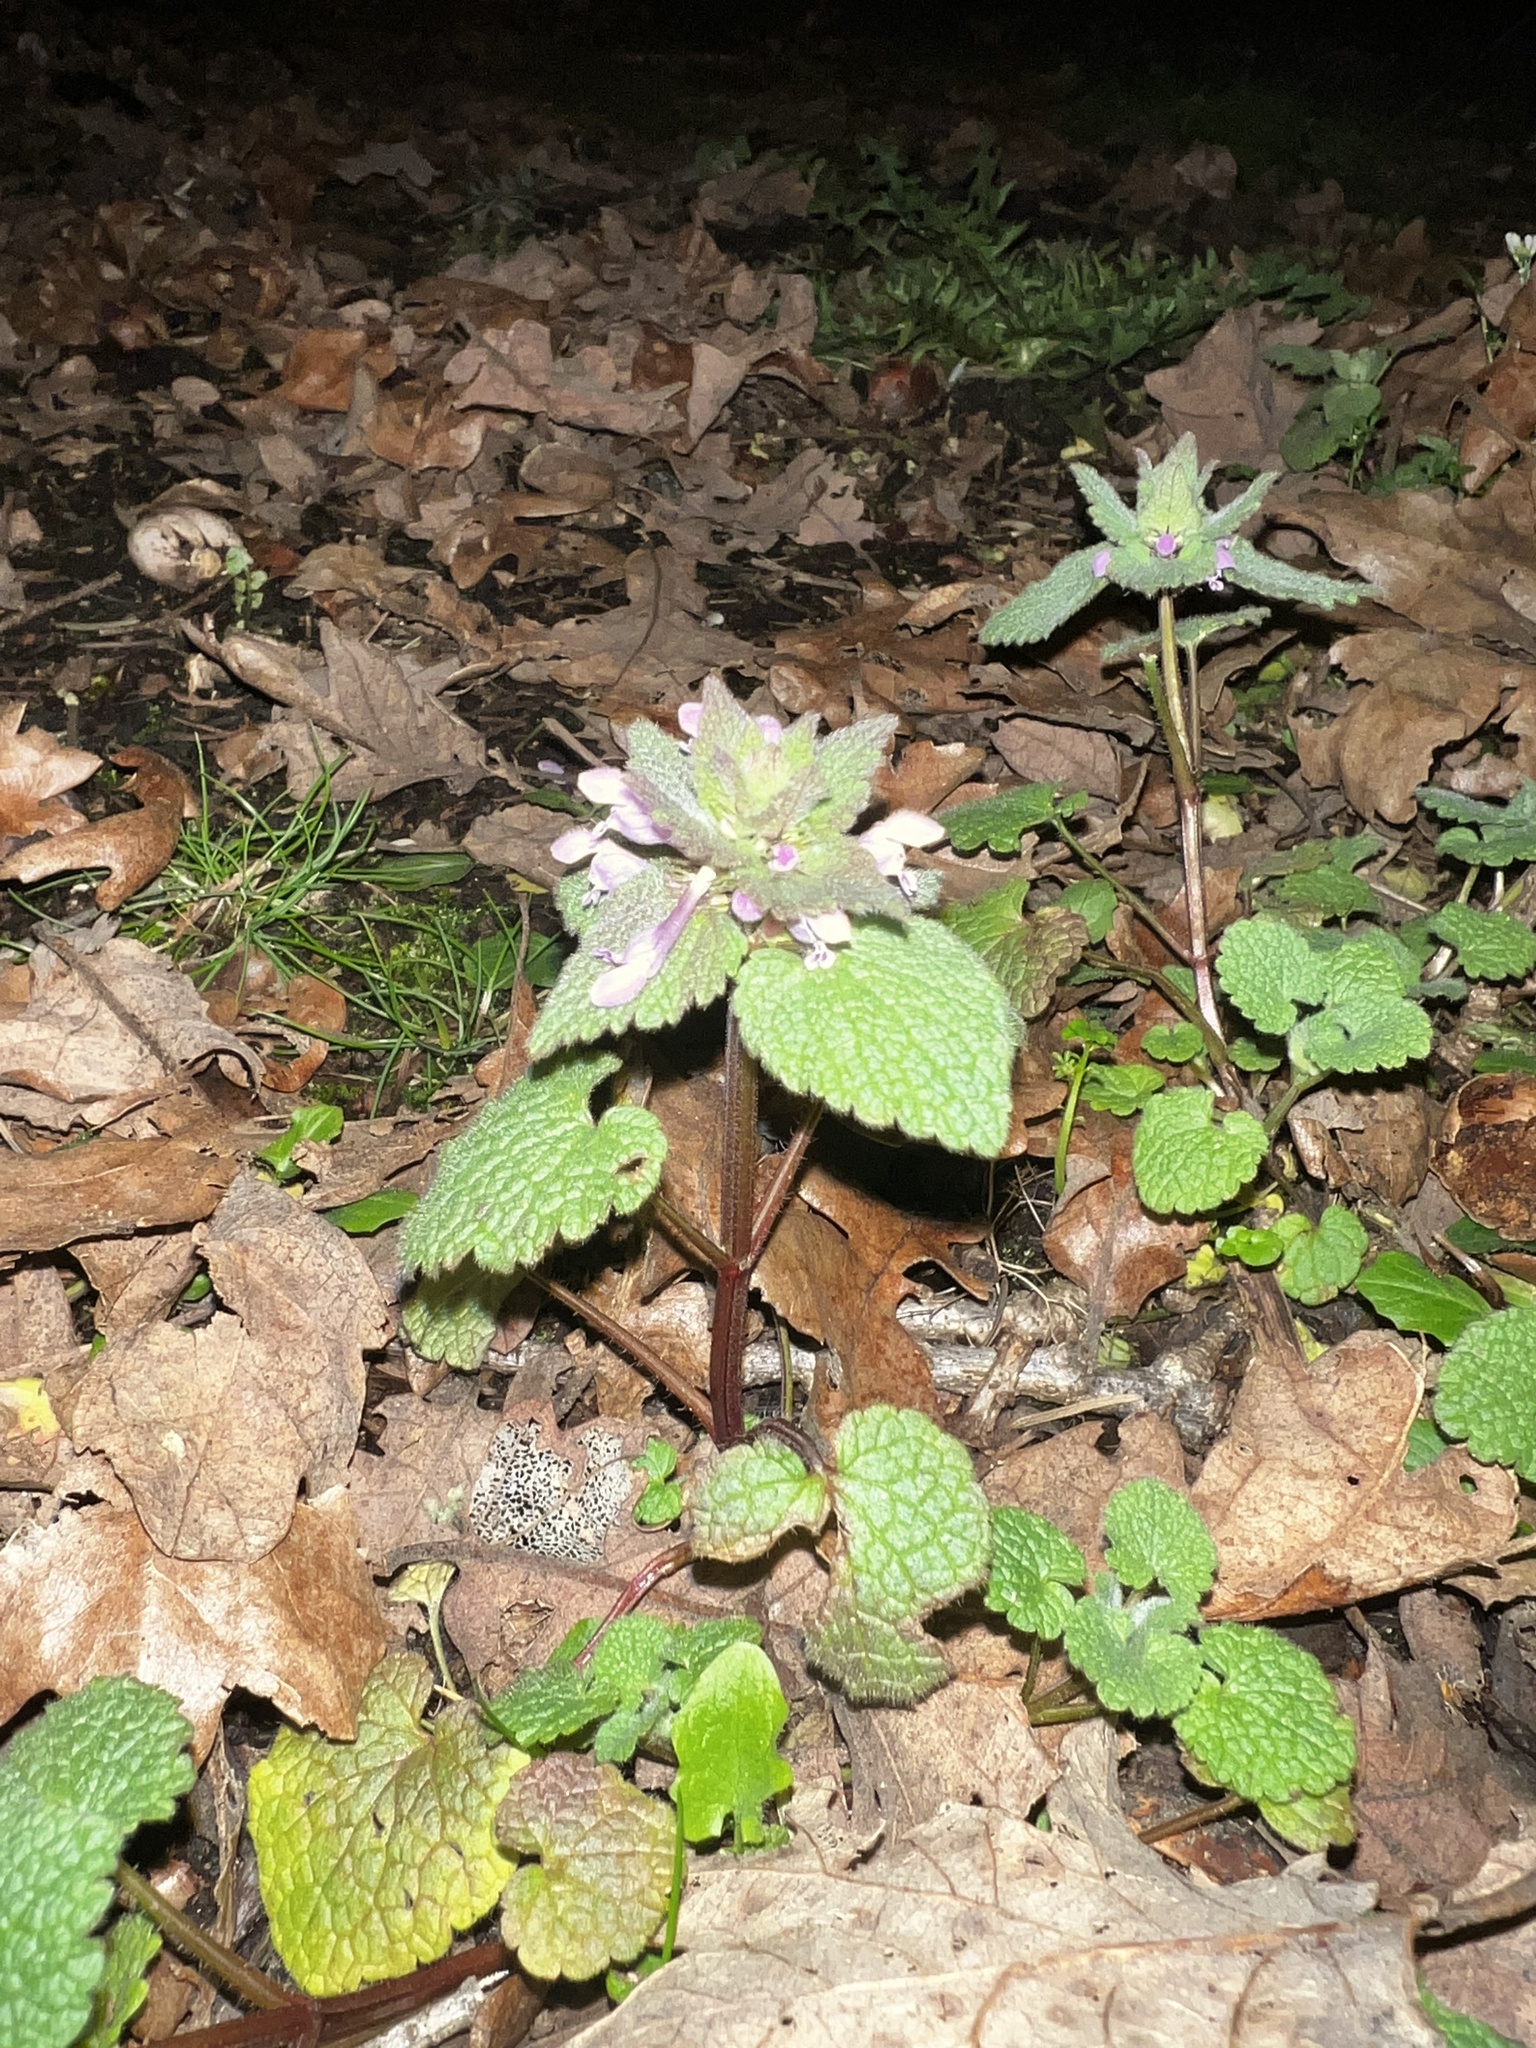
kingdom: Plantae
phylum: Tracheophyta
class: Magnoliopsida
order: Lamiales
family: Lamiaceae
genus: Lamium
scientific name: Lamium purpureum
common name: Red dead-nettle
